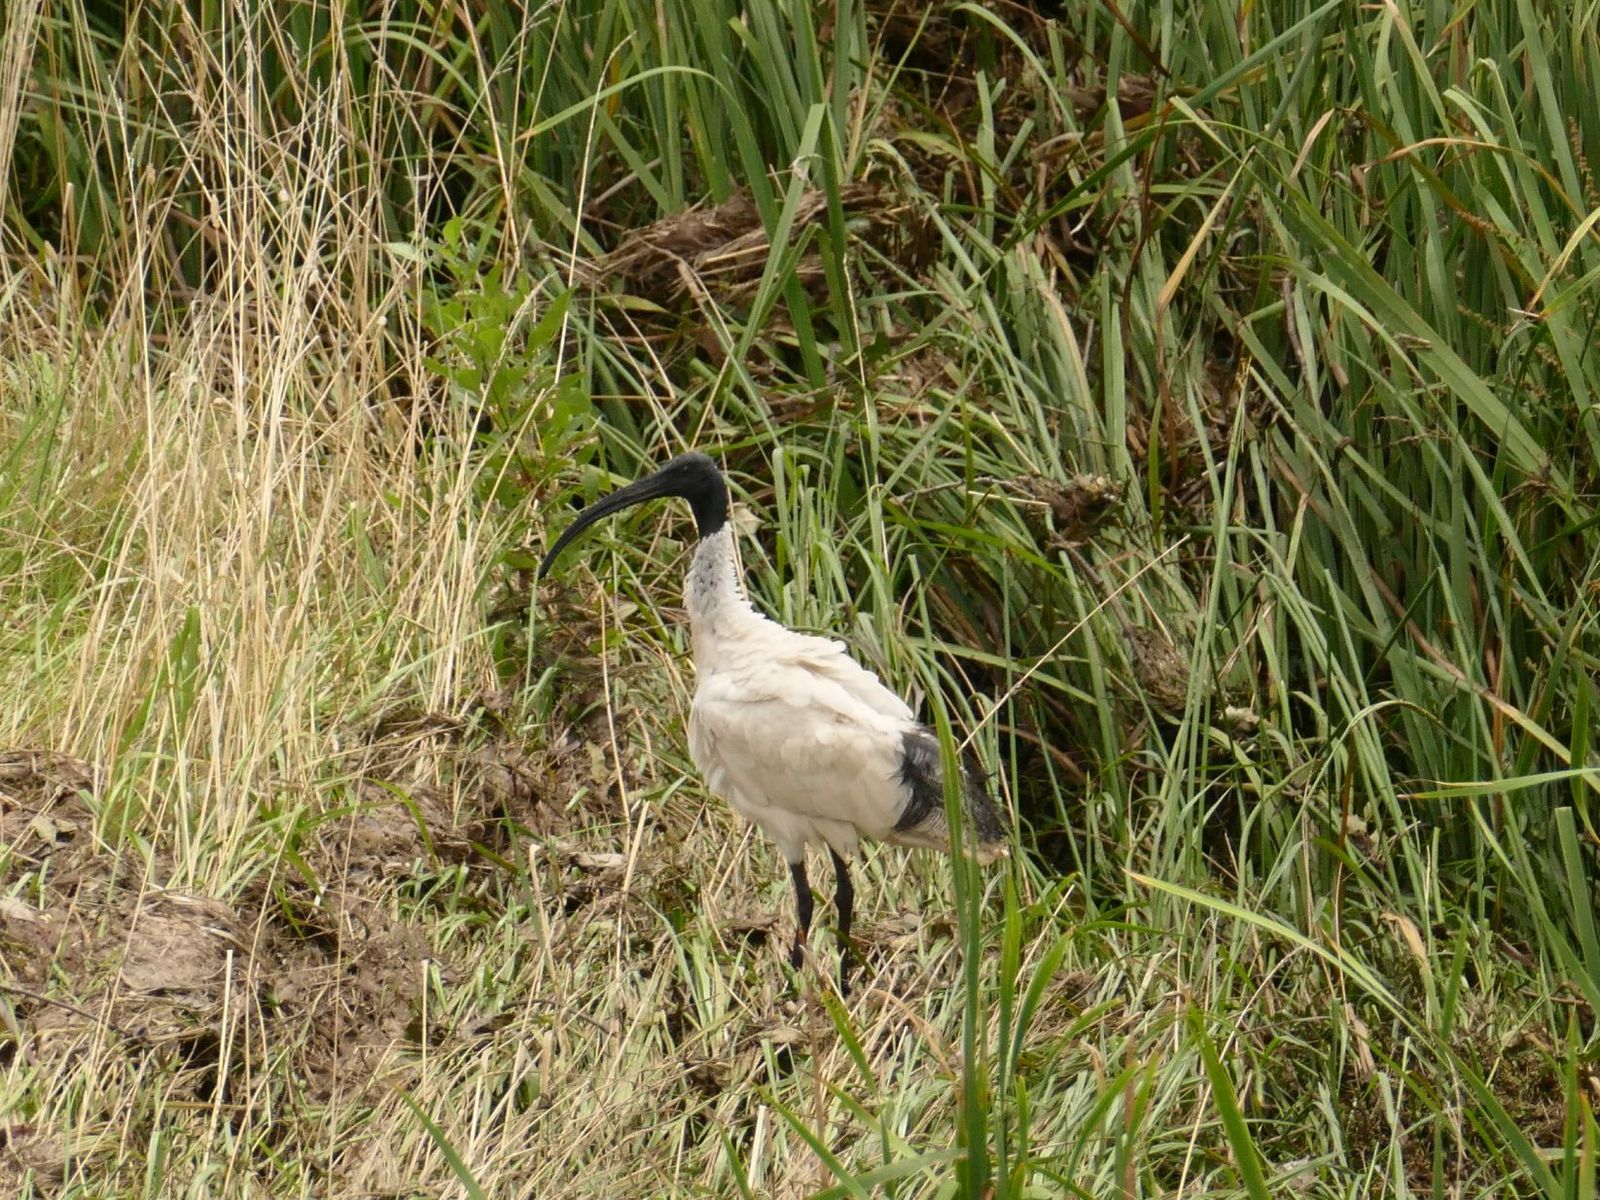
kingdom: Animalia
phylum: Chordata
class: Aves
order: Pelecaniformes
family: Threskiornithidae
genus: Threskiornis
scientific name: Threskiornis molucca
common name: Australian white ibis
